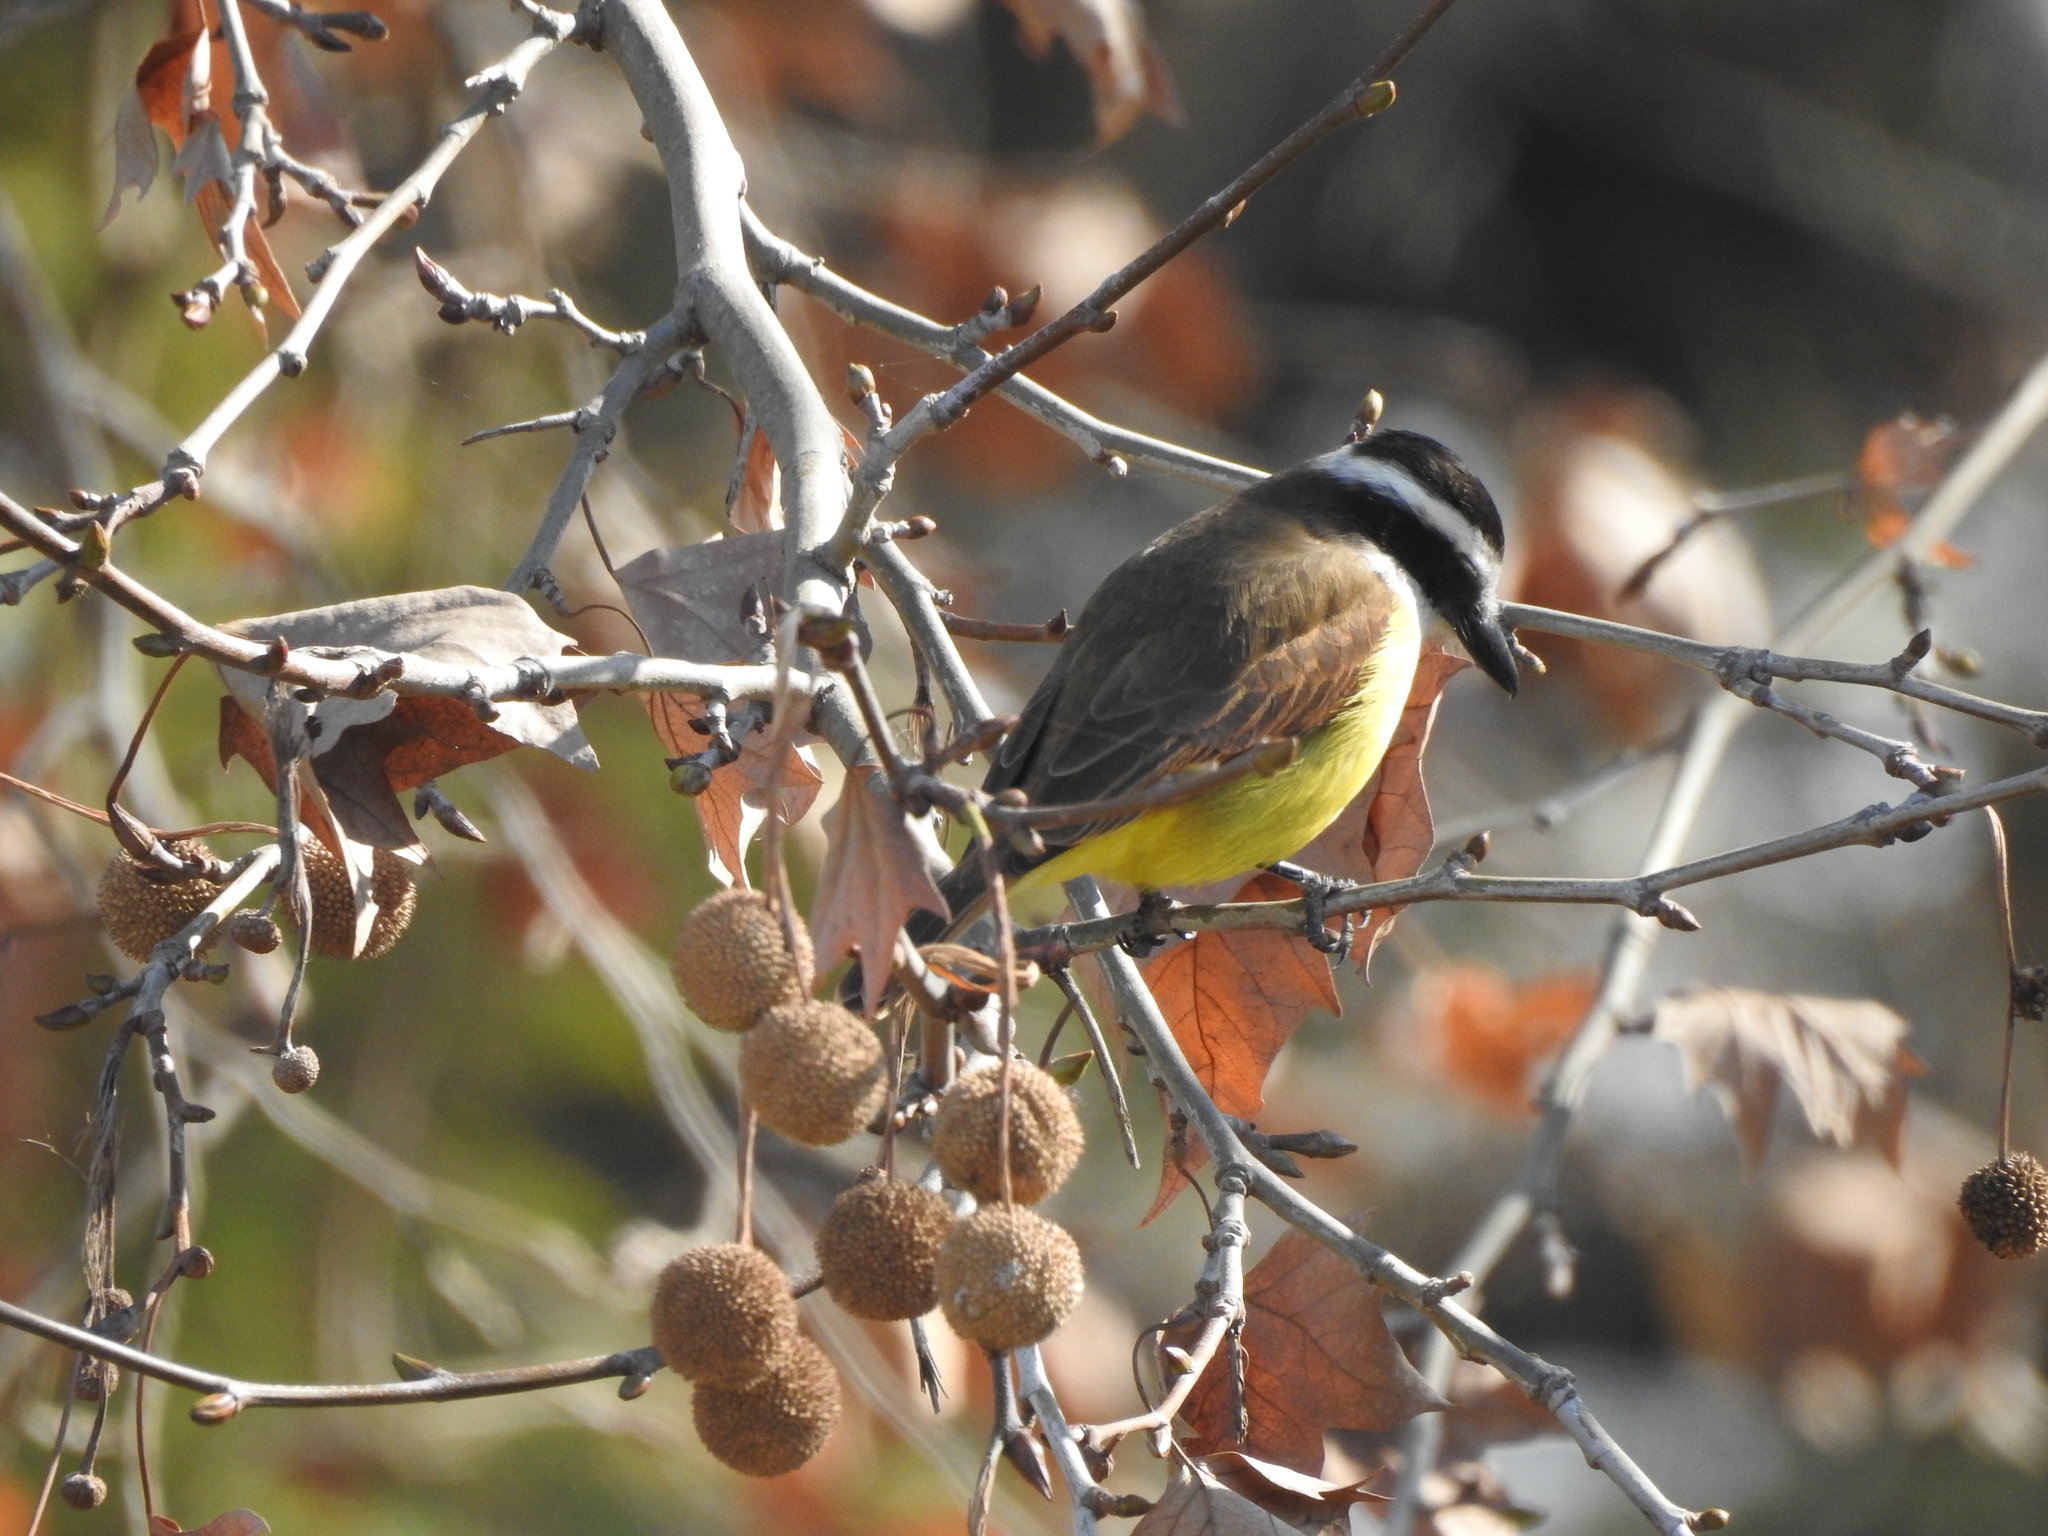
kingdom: Animalia
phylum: Chordata
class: Aves
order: Passeriformes
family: Tyrannidae
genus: Pitangus
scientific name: Pitangus sulphuratus
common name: Great kiskadee
